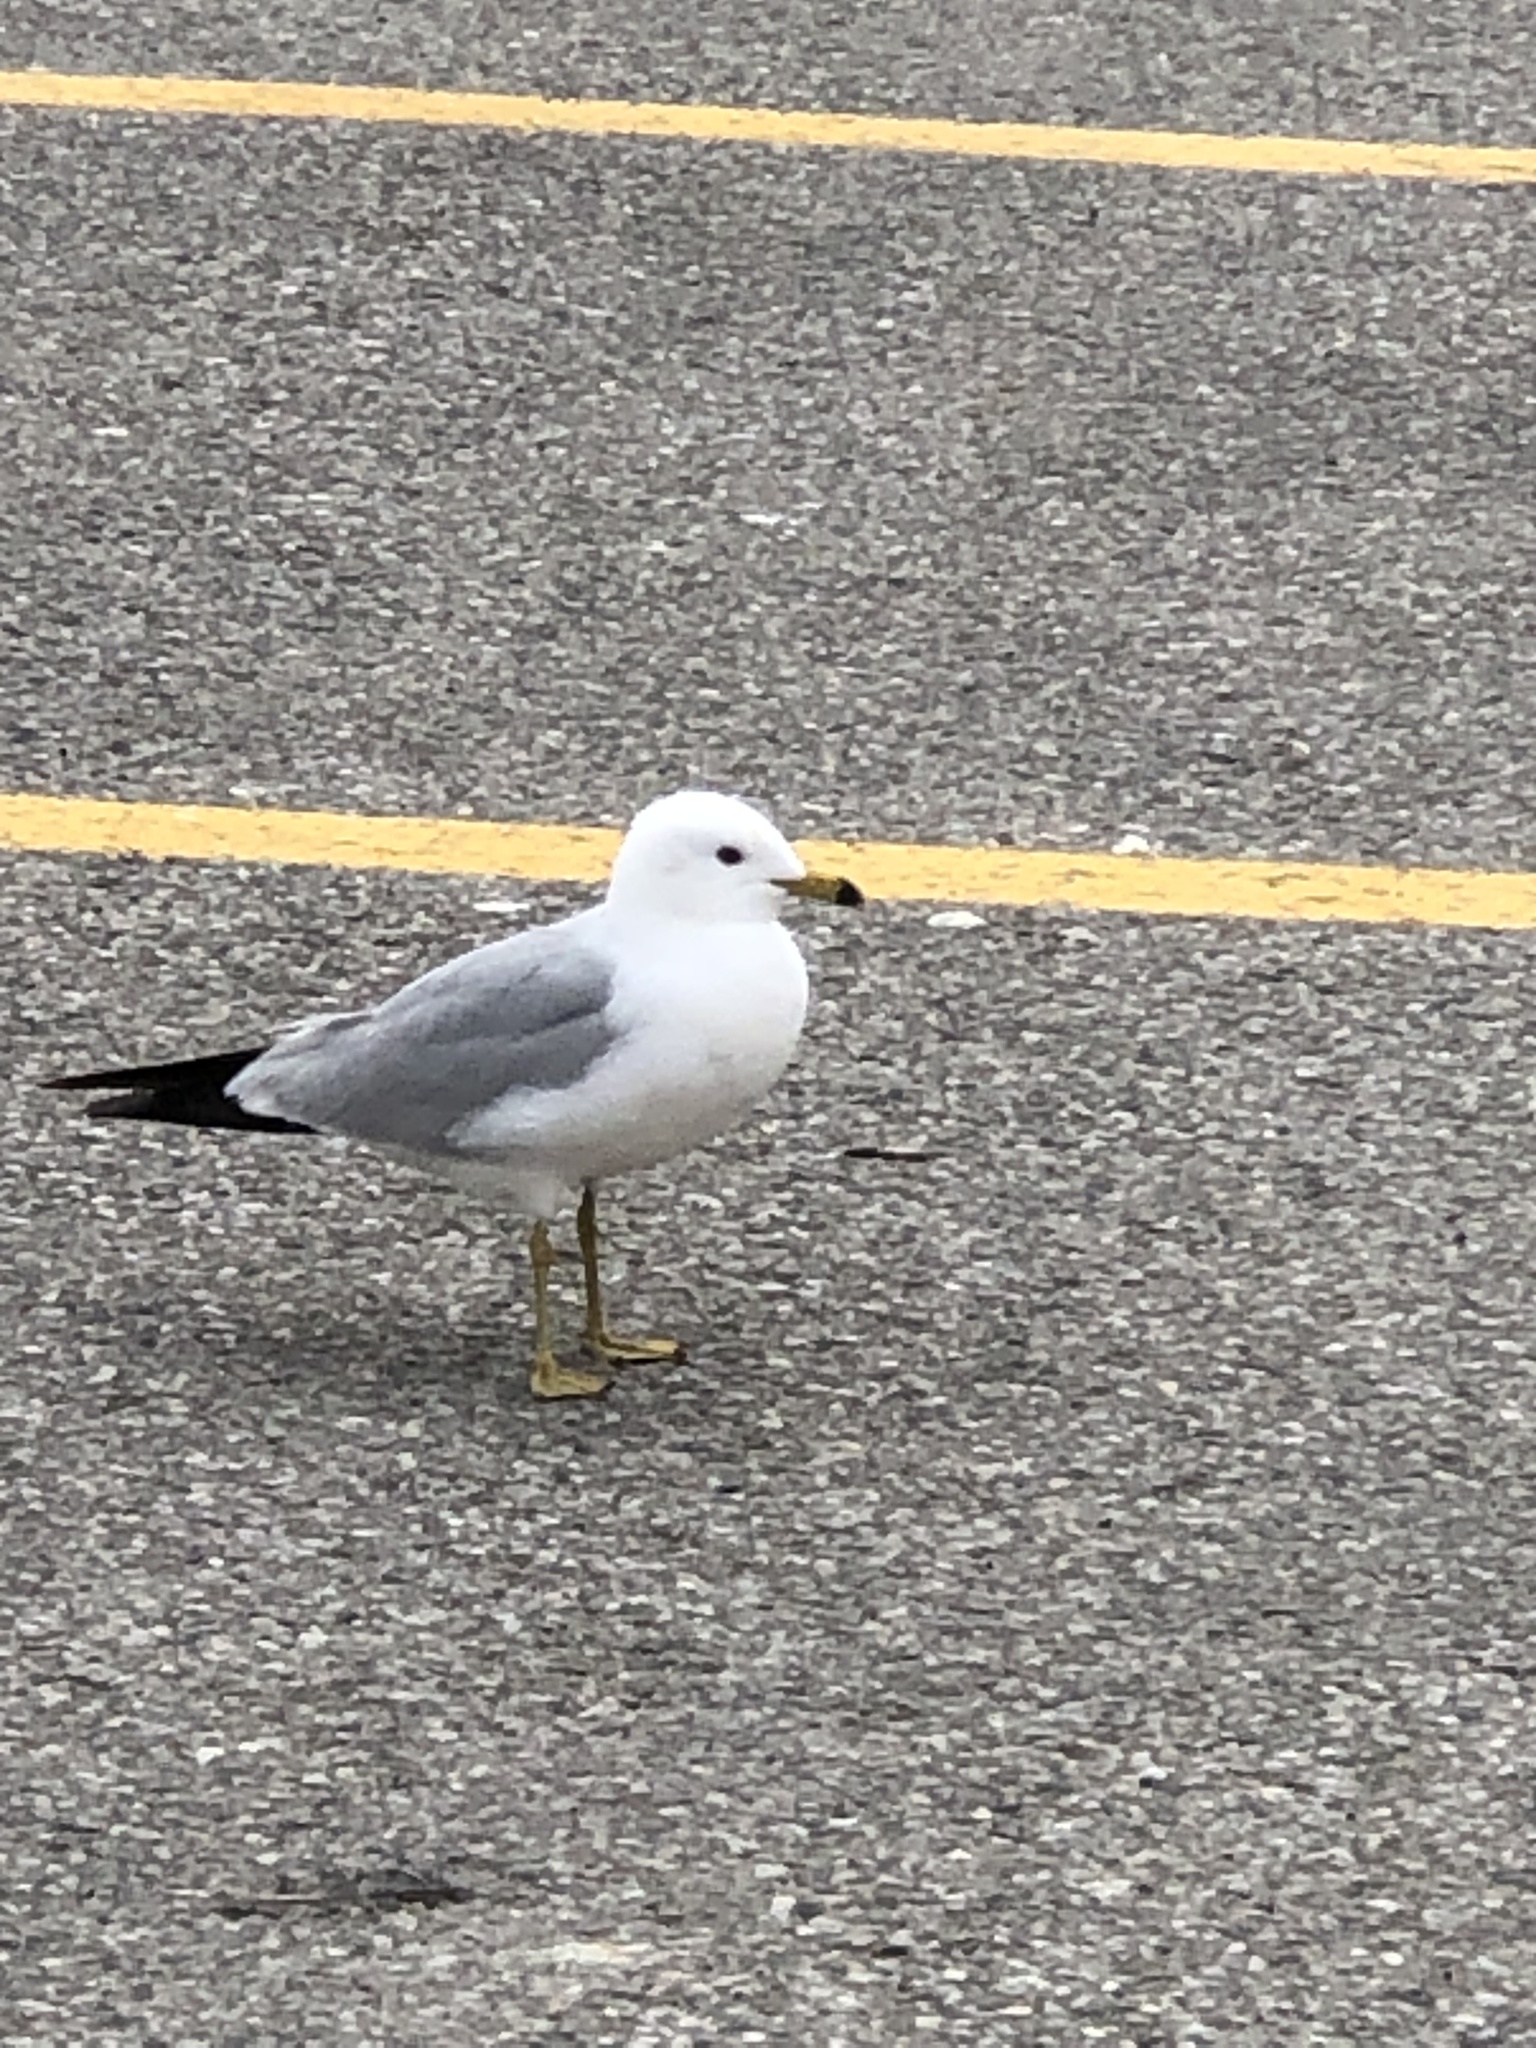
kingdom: Animalia
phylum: Chordata
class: Aves
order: Charadriiformes
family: Laridae
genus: Larus
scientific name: Larus delawarensis
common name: Ring-billed gull
